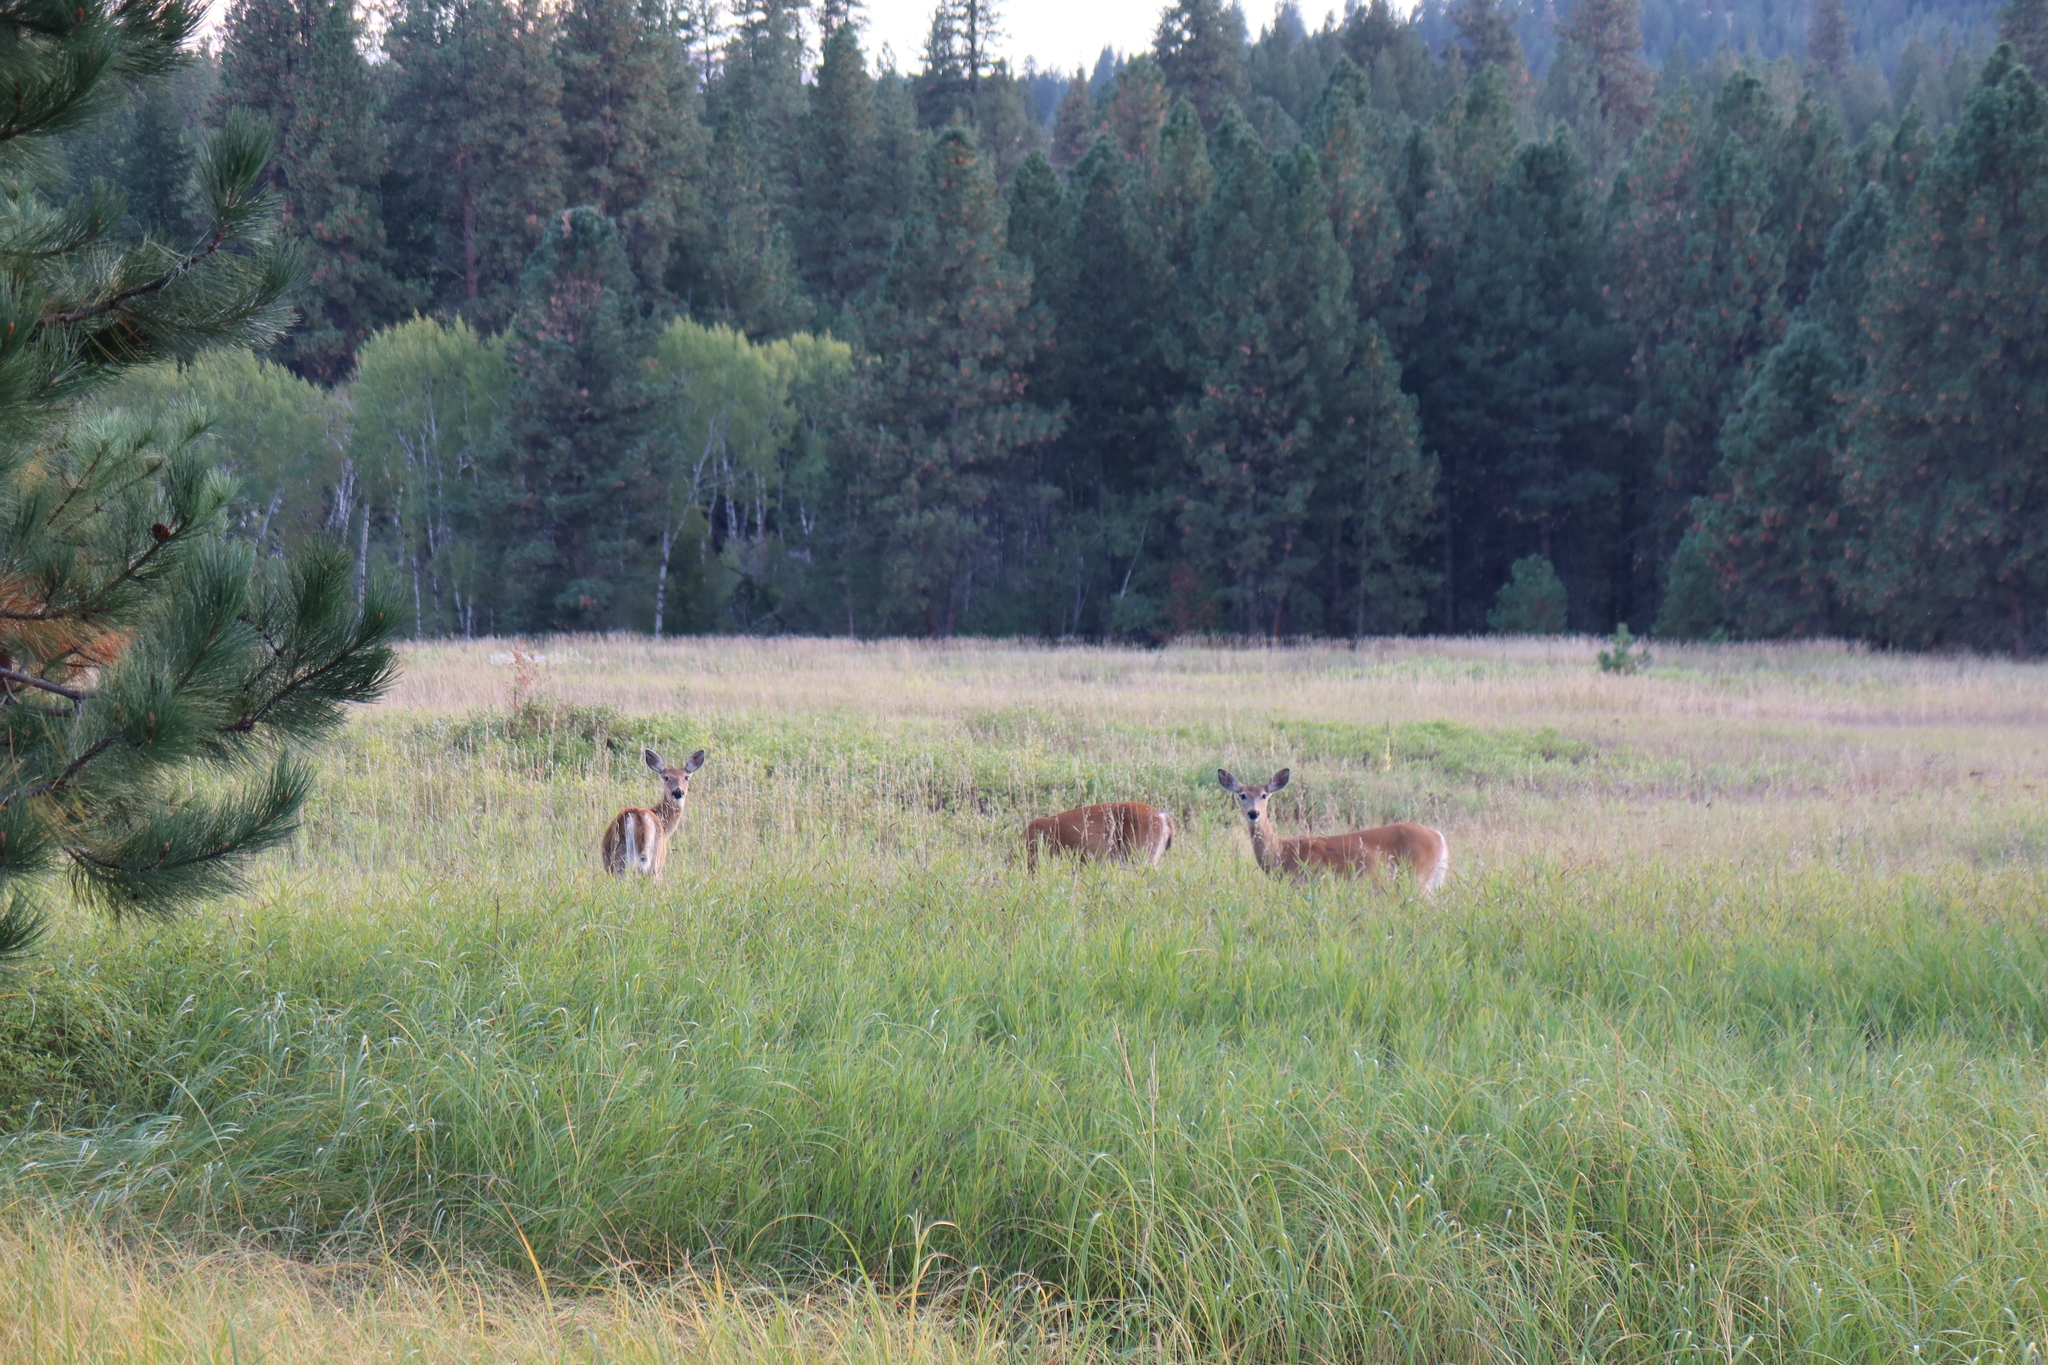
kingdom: Animalia
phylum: Chordata
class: Mammalia
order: Artiodactyla
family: Cervidae
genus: Odocoileus
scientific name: Odocoileus virginianus
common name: White-tailed deer
